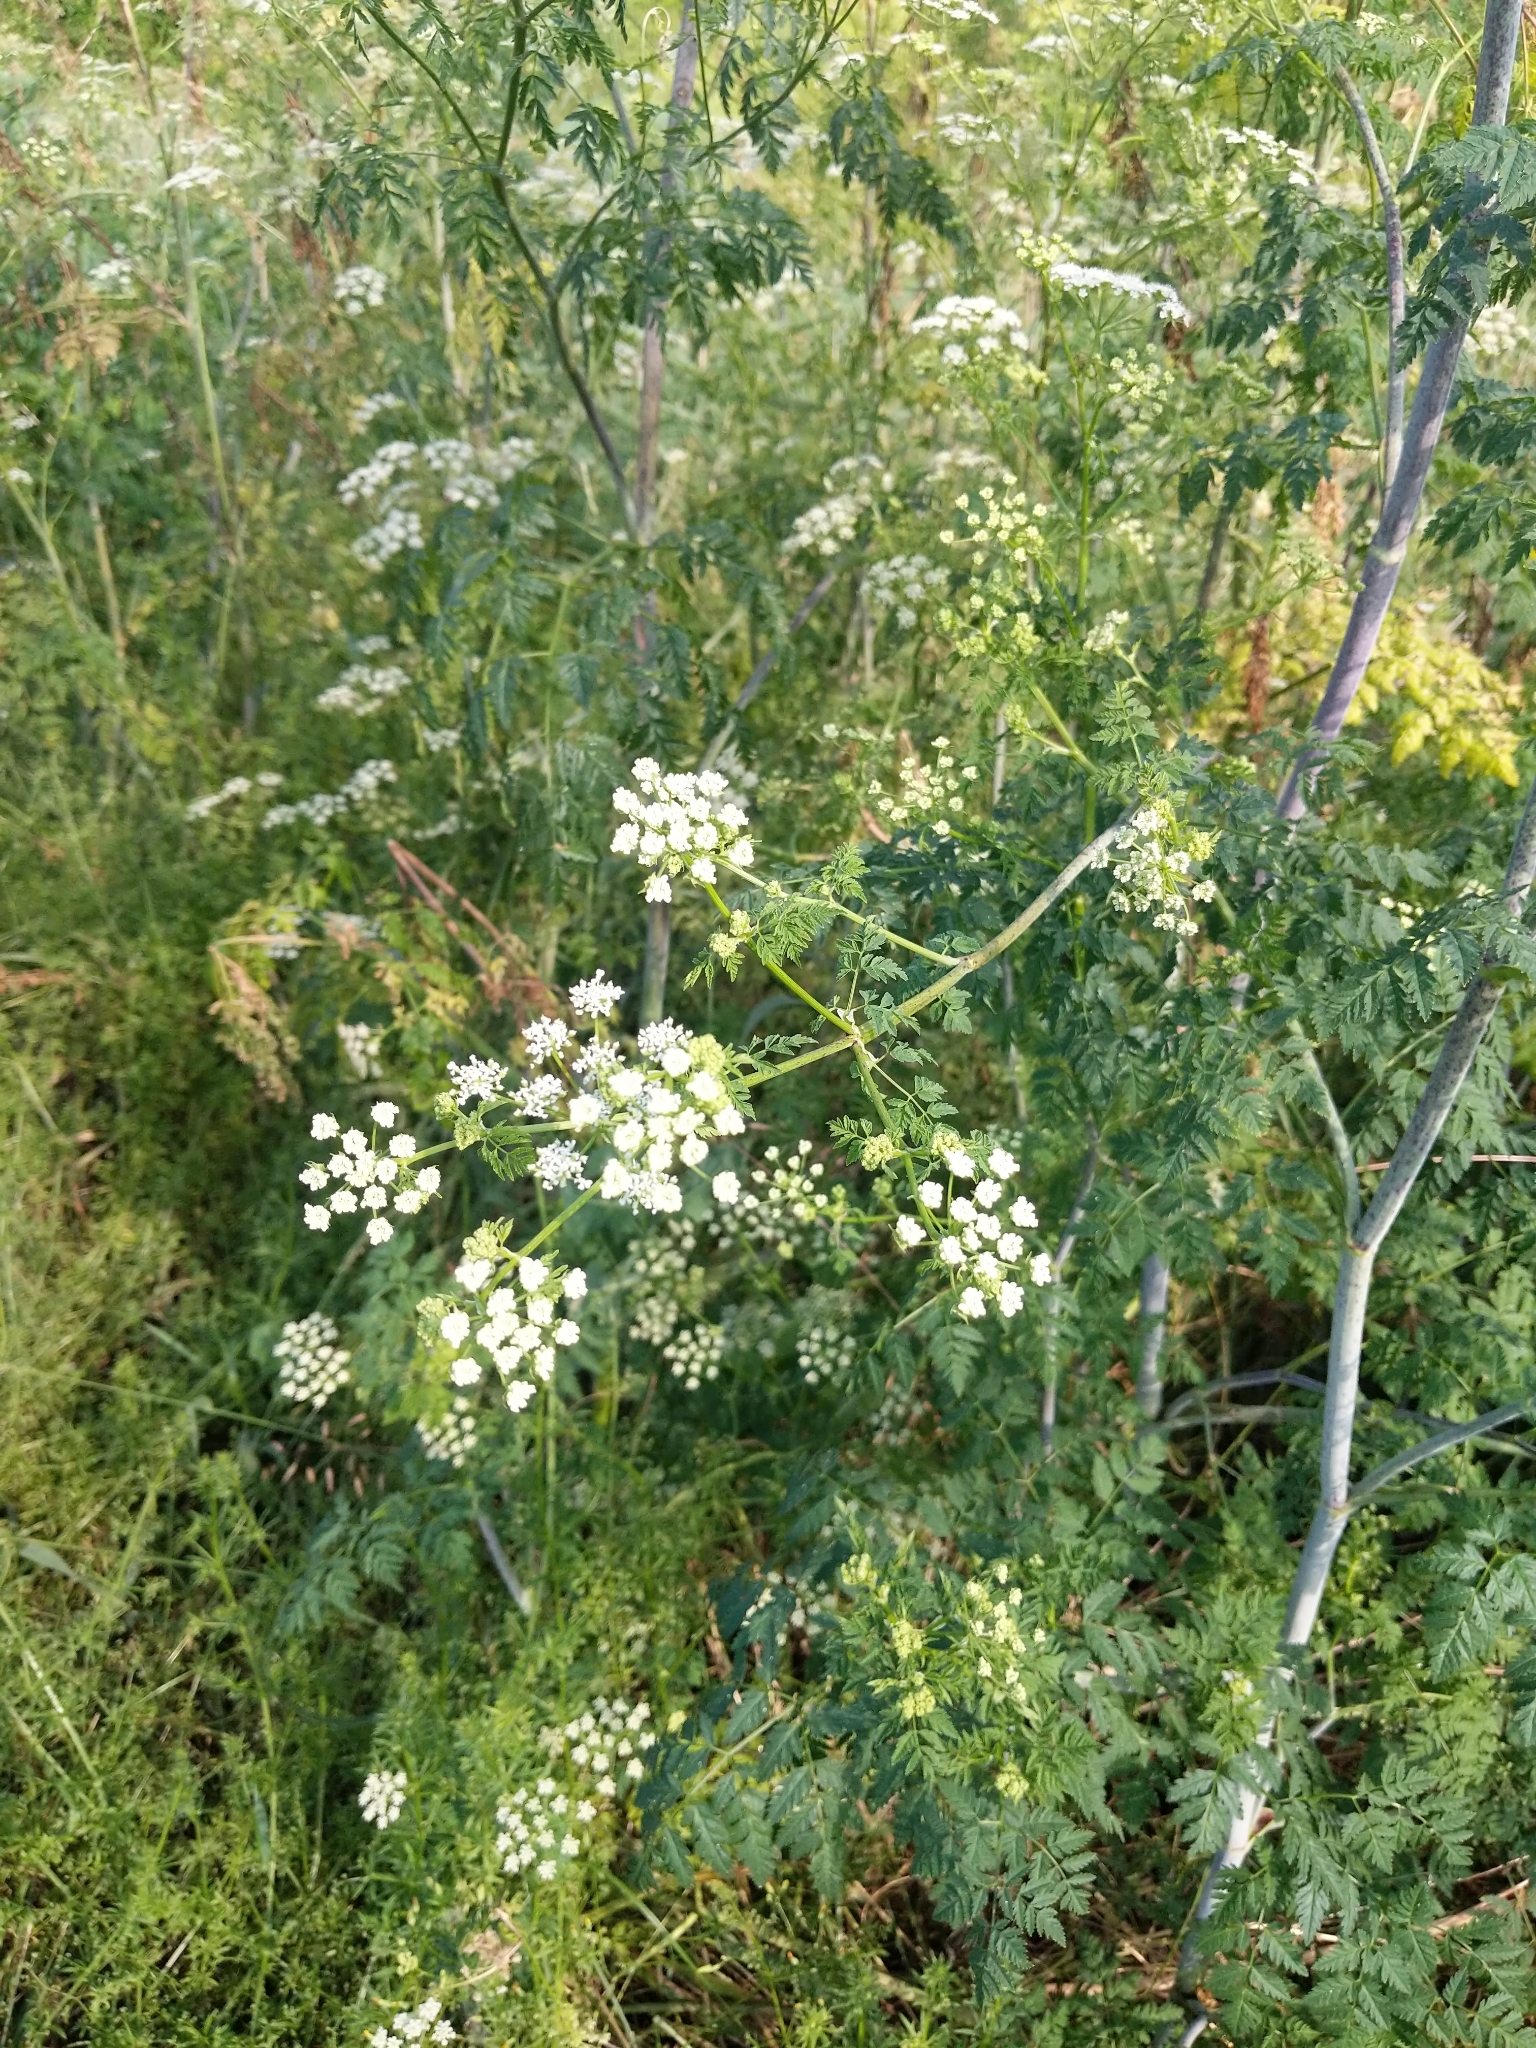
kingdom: Plantae
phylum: Tracheophyta
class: Magnoliopsida
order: Apiales
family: Apiaceae
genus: Conium
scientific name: Conium maculatum
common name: Hemlock
